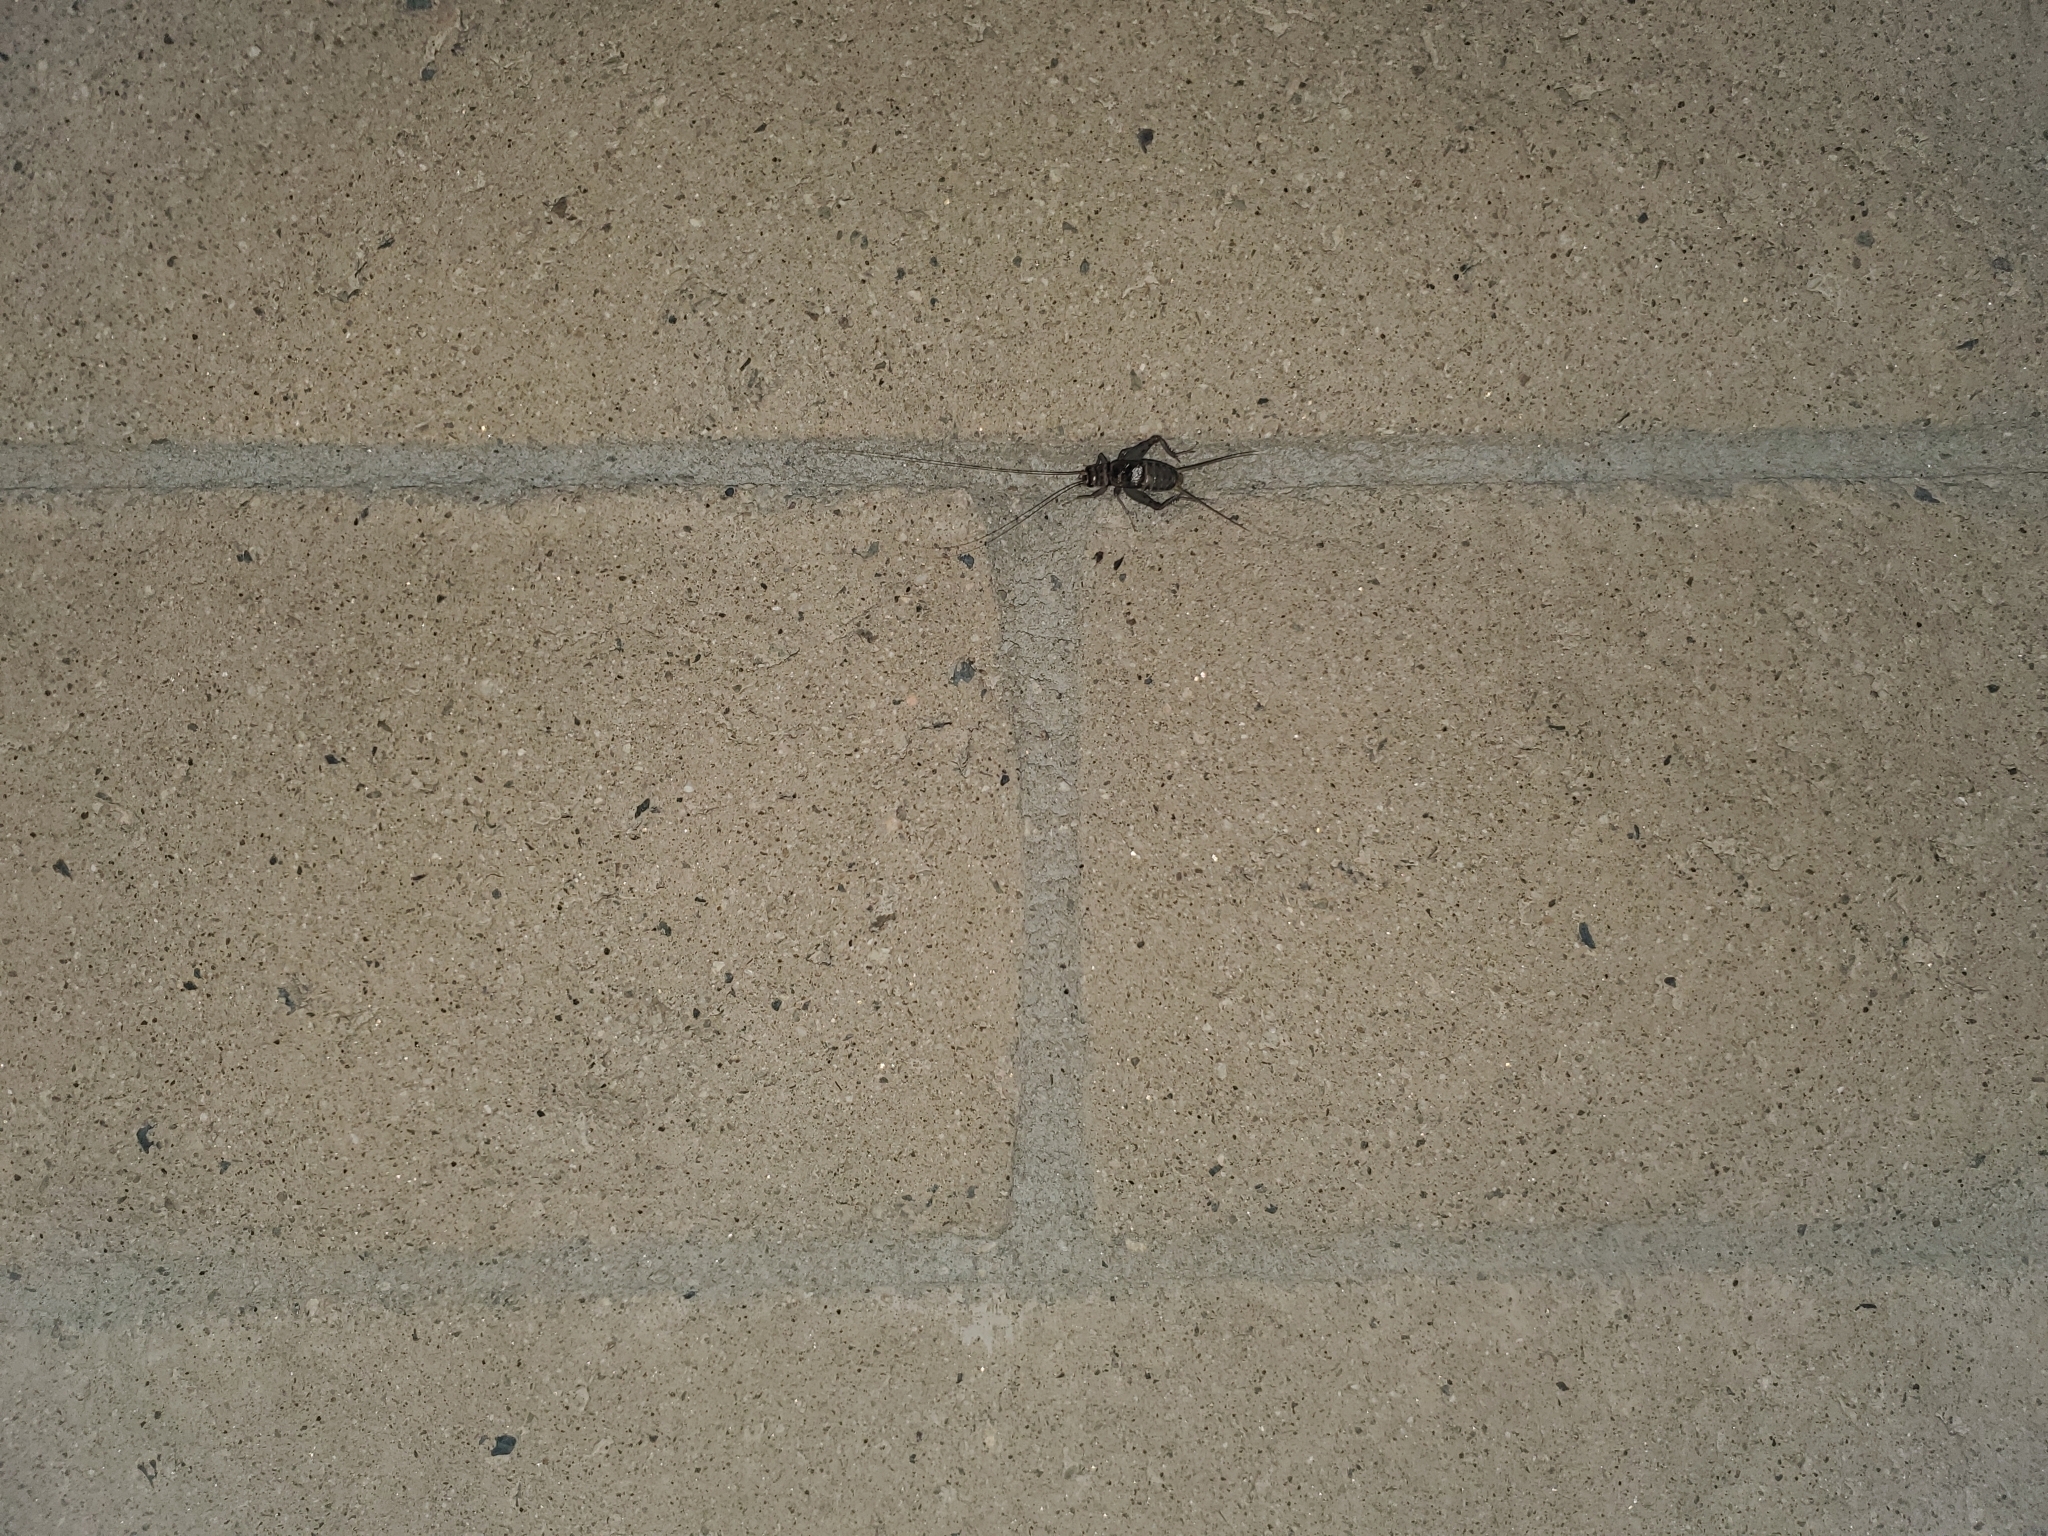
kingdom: Animalia
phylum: Arthropoda
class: Insecta
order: Orthoptera
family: Gryllidae
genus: Gryllodes
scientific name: Gryllodes sigillatus
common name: Tropical house cricket
